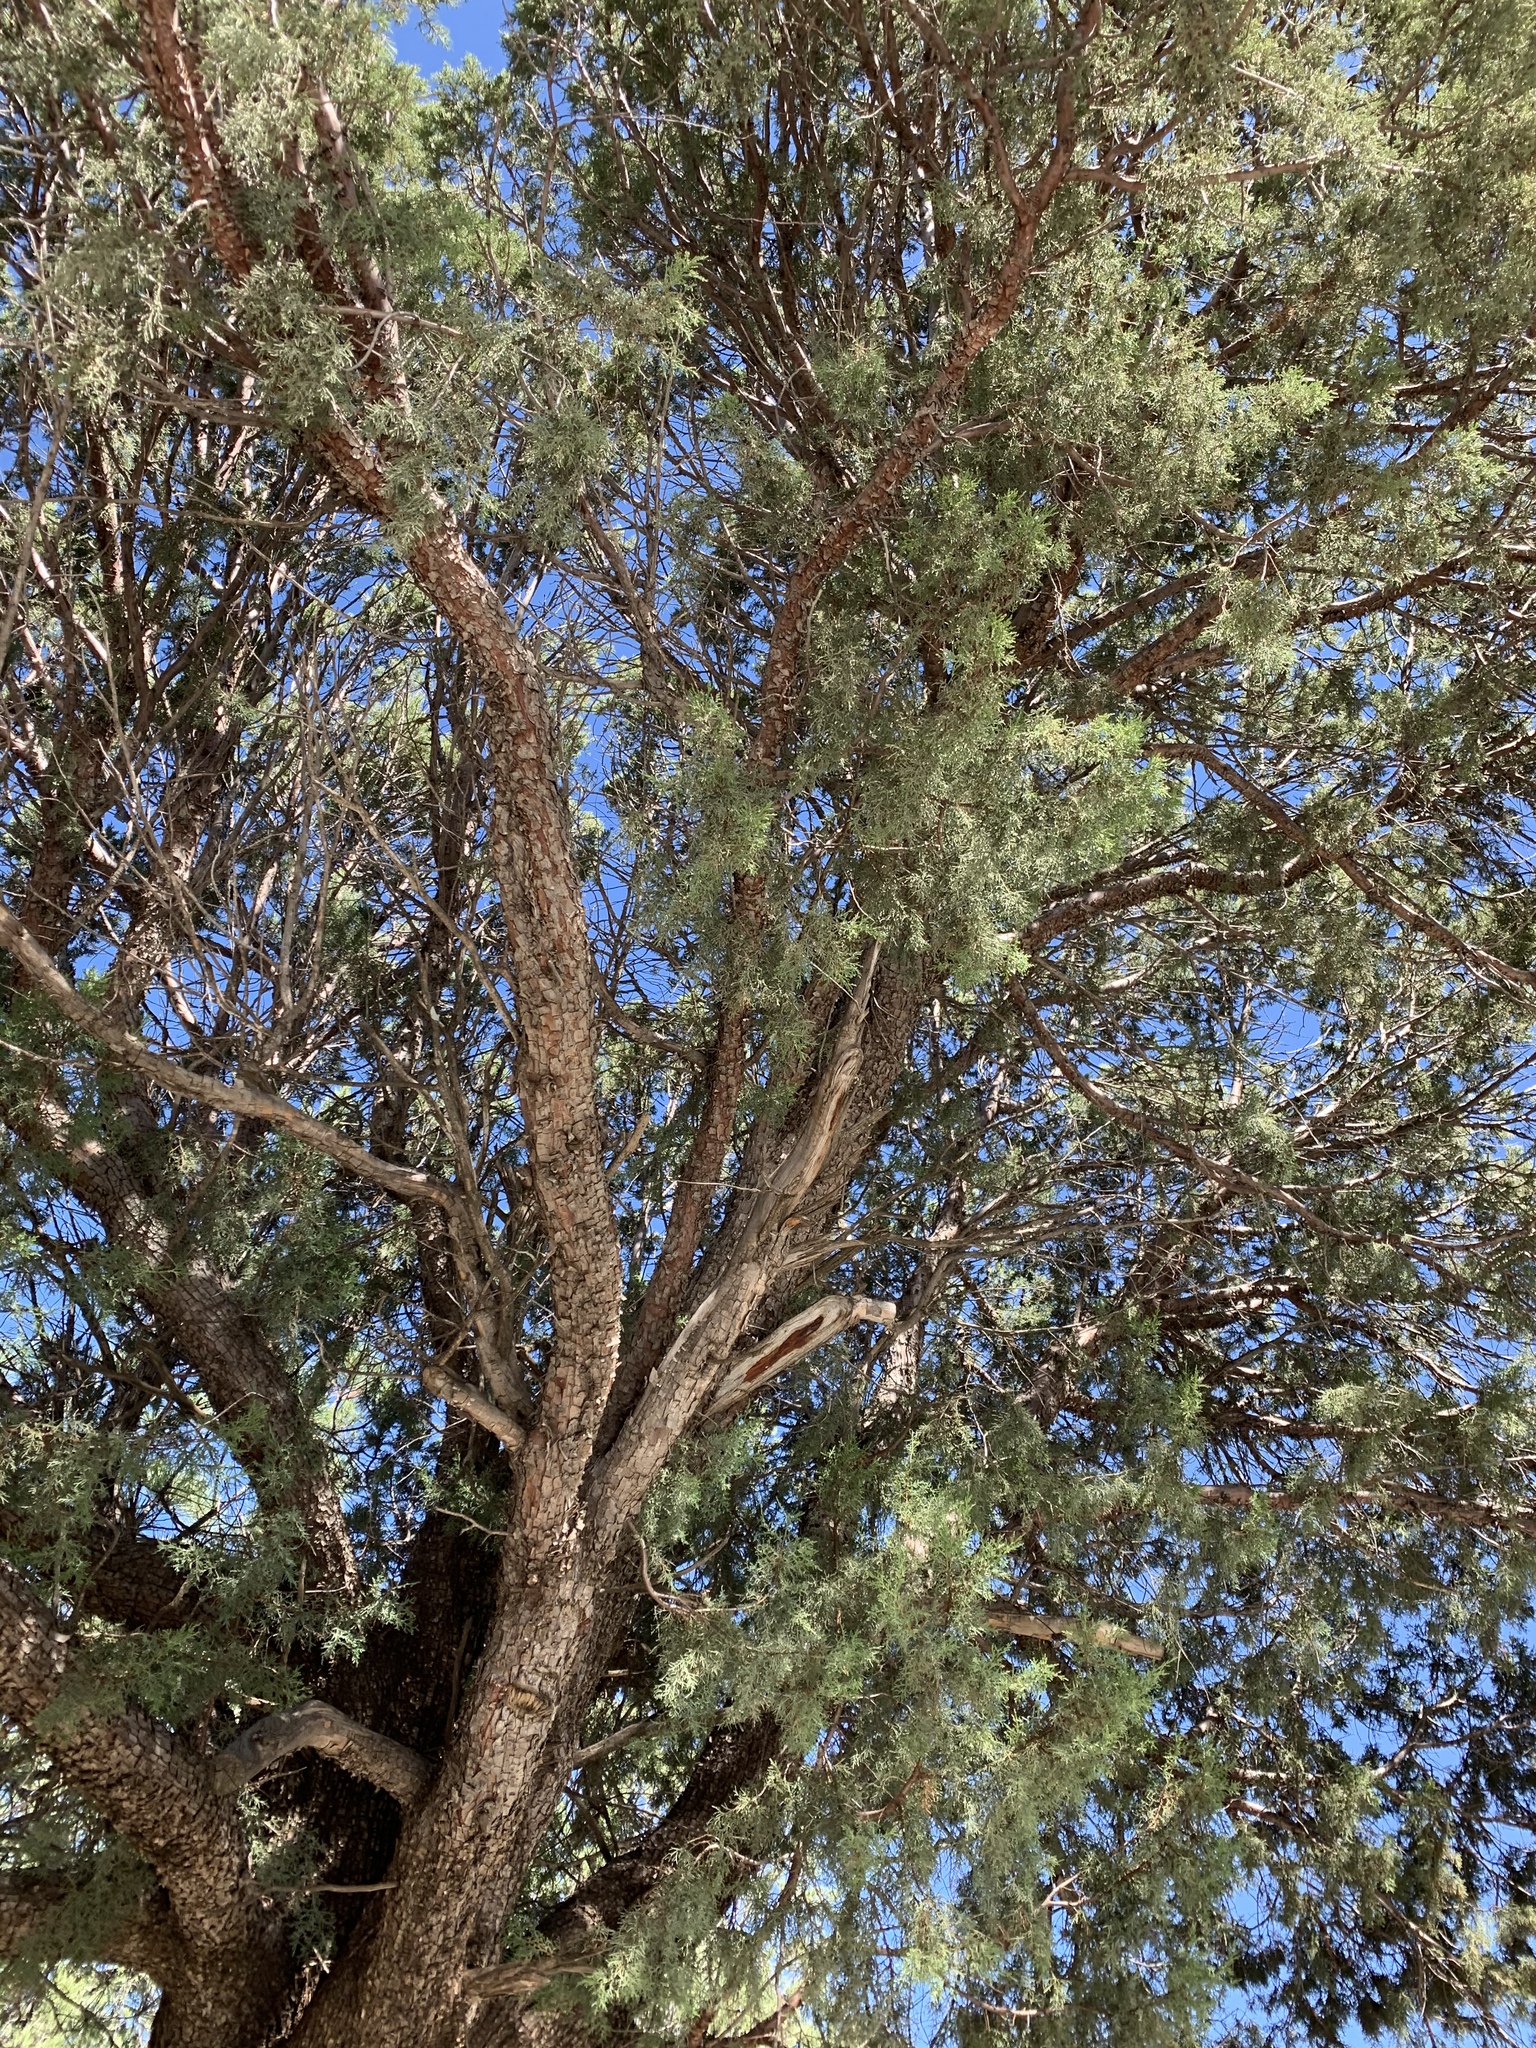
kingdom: Plantae
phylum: Tracheophyta
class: Pinopsida
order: Pinales
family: Cupressaceae
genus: Juniperus
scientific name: Juniperus deppeana
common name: Alligator juniper
